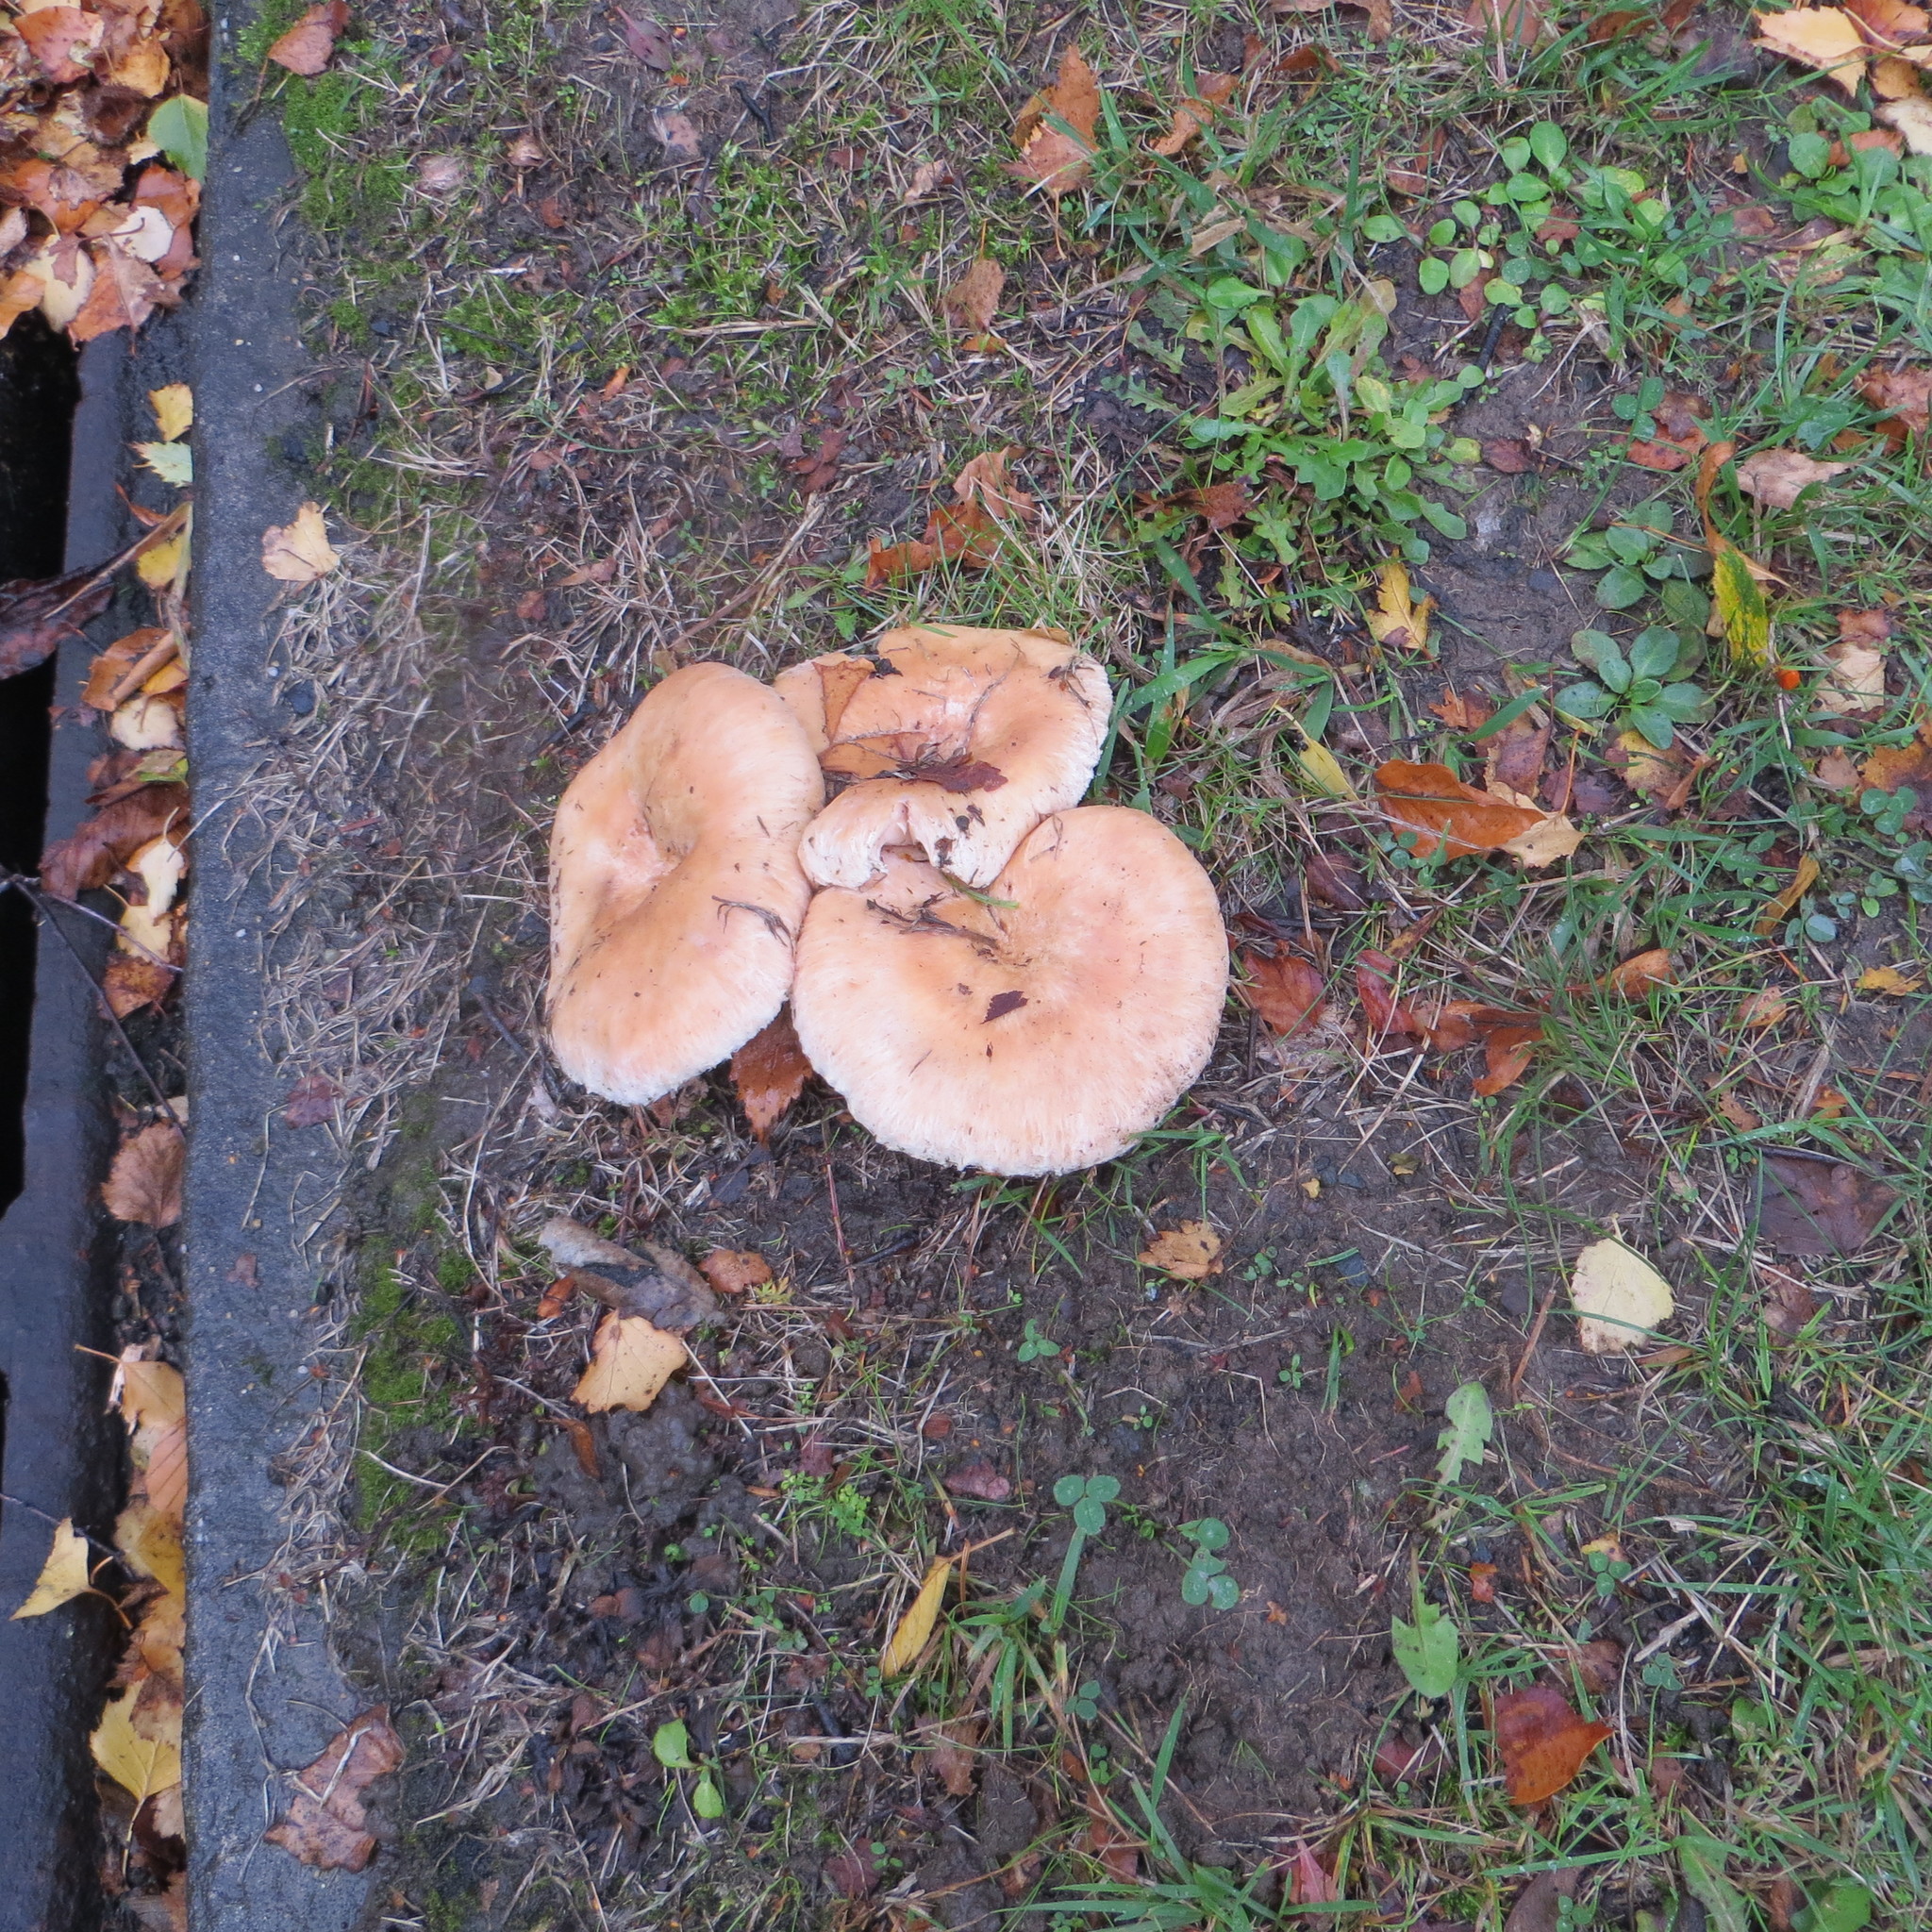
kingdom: Fungi
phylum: Basidiomycota
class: Agaricomycetes
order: Russulales
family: Russulaceae
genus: Lactarius
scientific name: Lactarius pubescens
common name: Bearded milkcap
